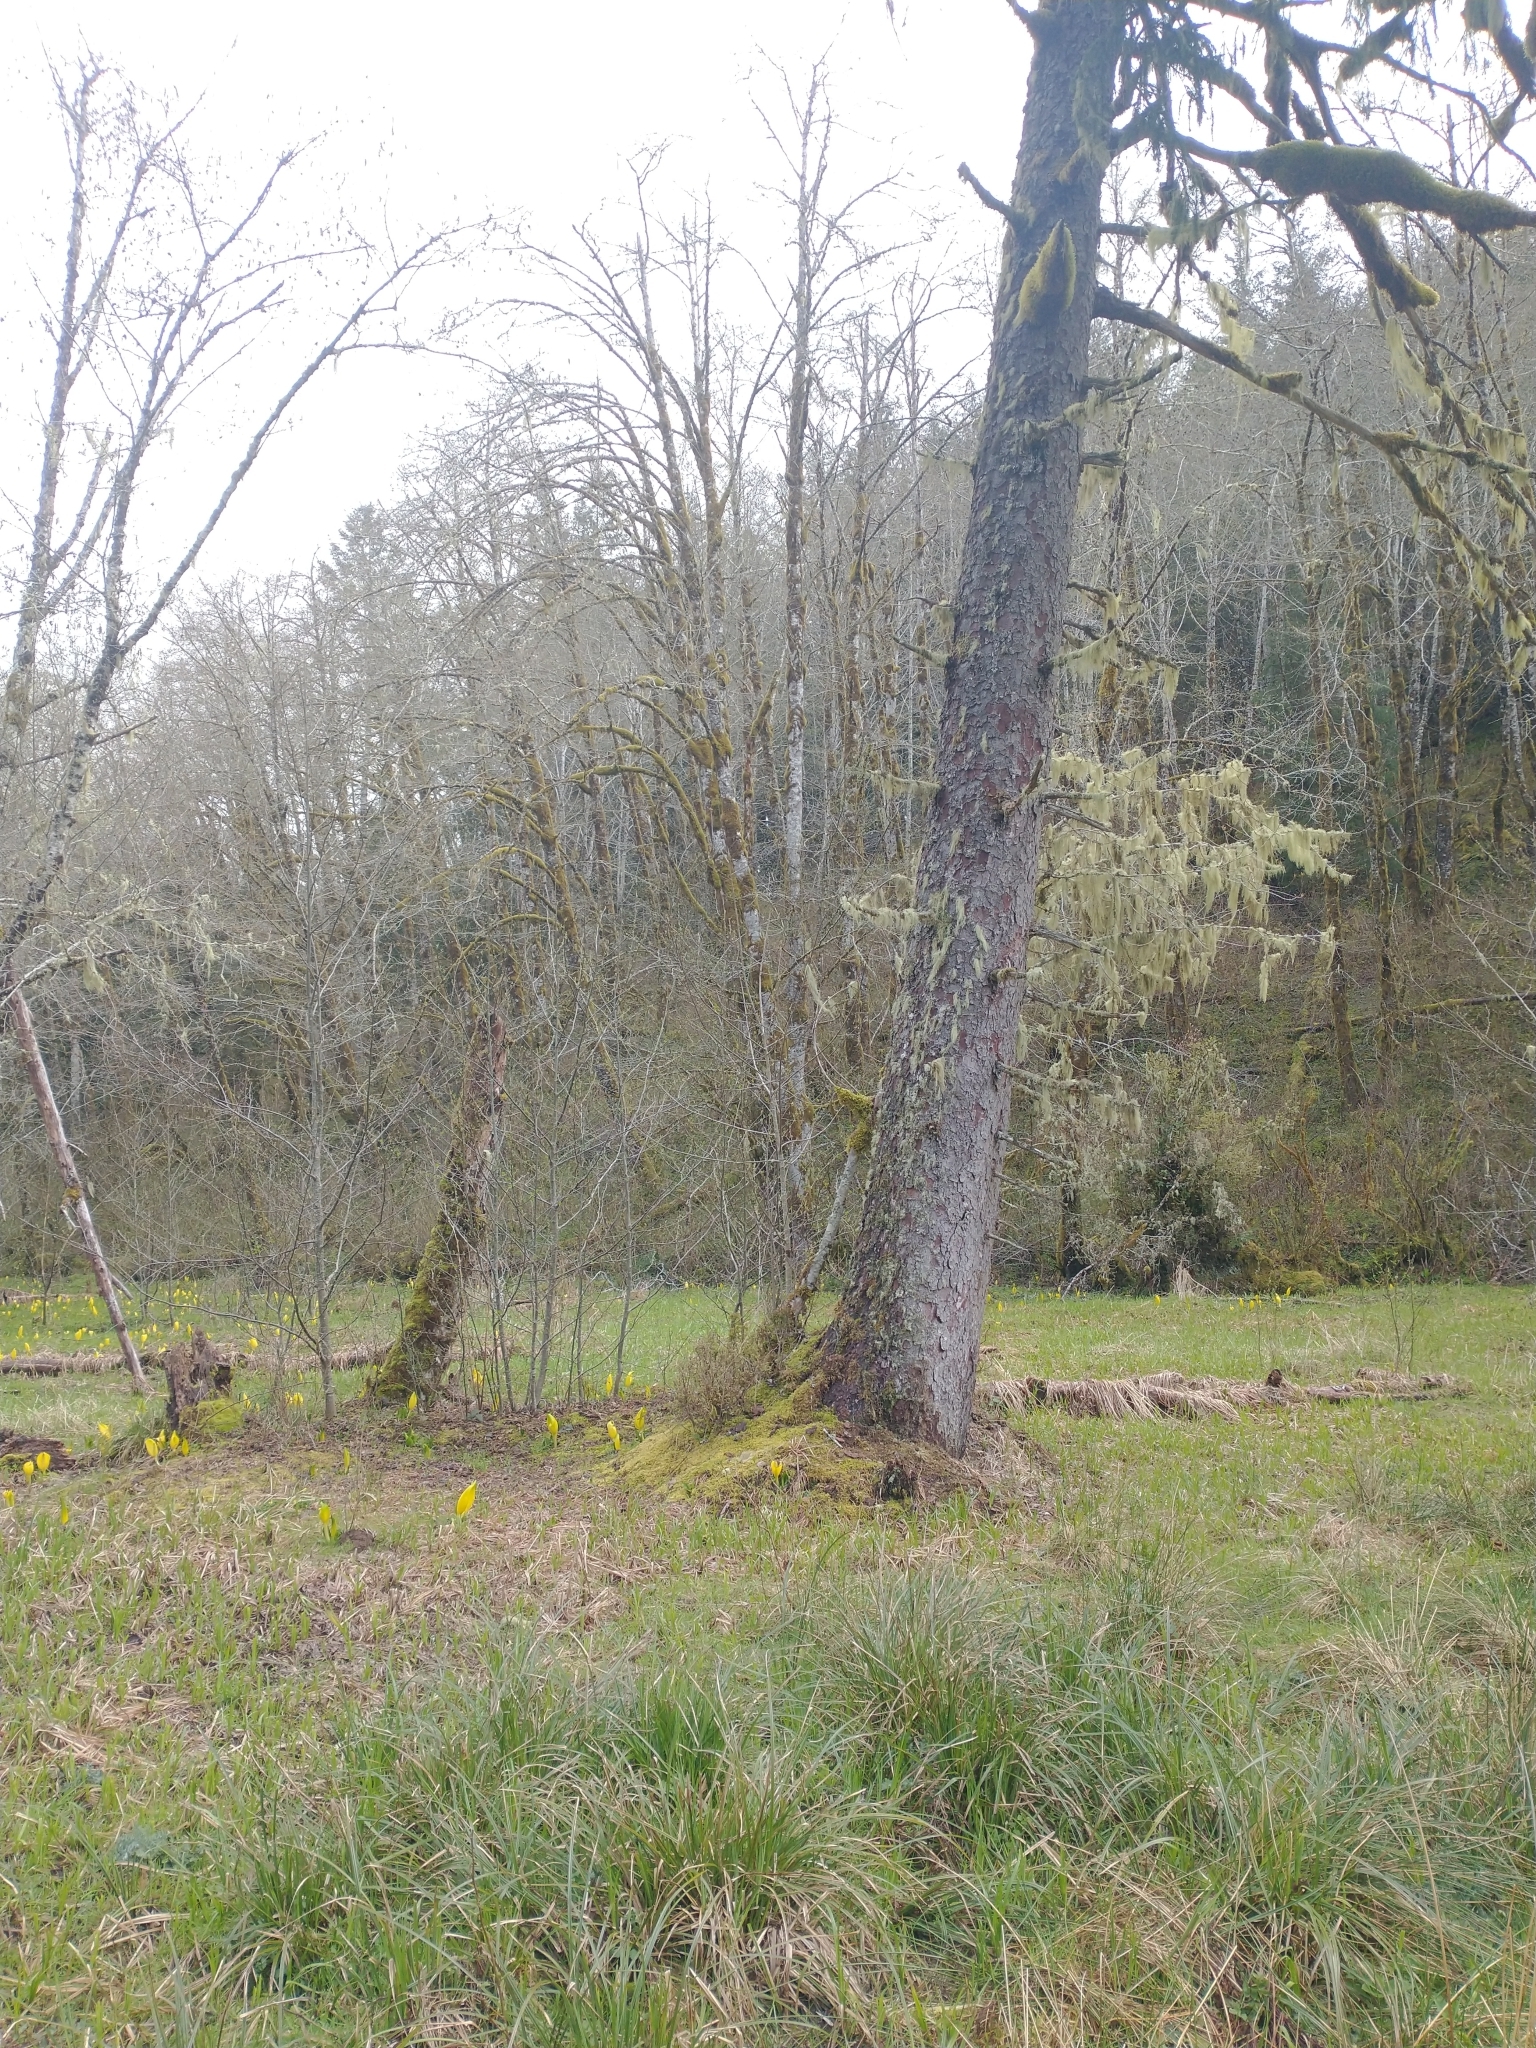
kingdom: Plantae
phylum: Tracheophyta
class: Pinopsida
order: Pinales
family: Pinaceae
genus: Picea
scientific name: Picea sitchensis
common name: Sitka spruce
